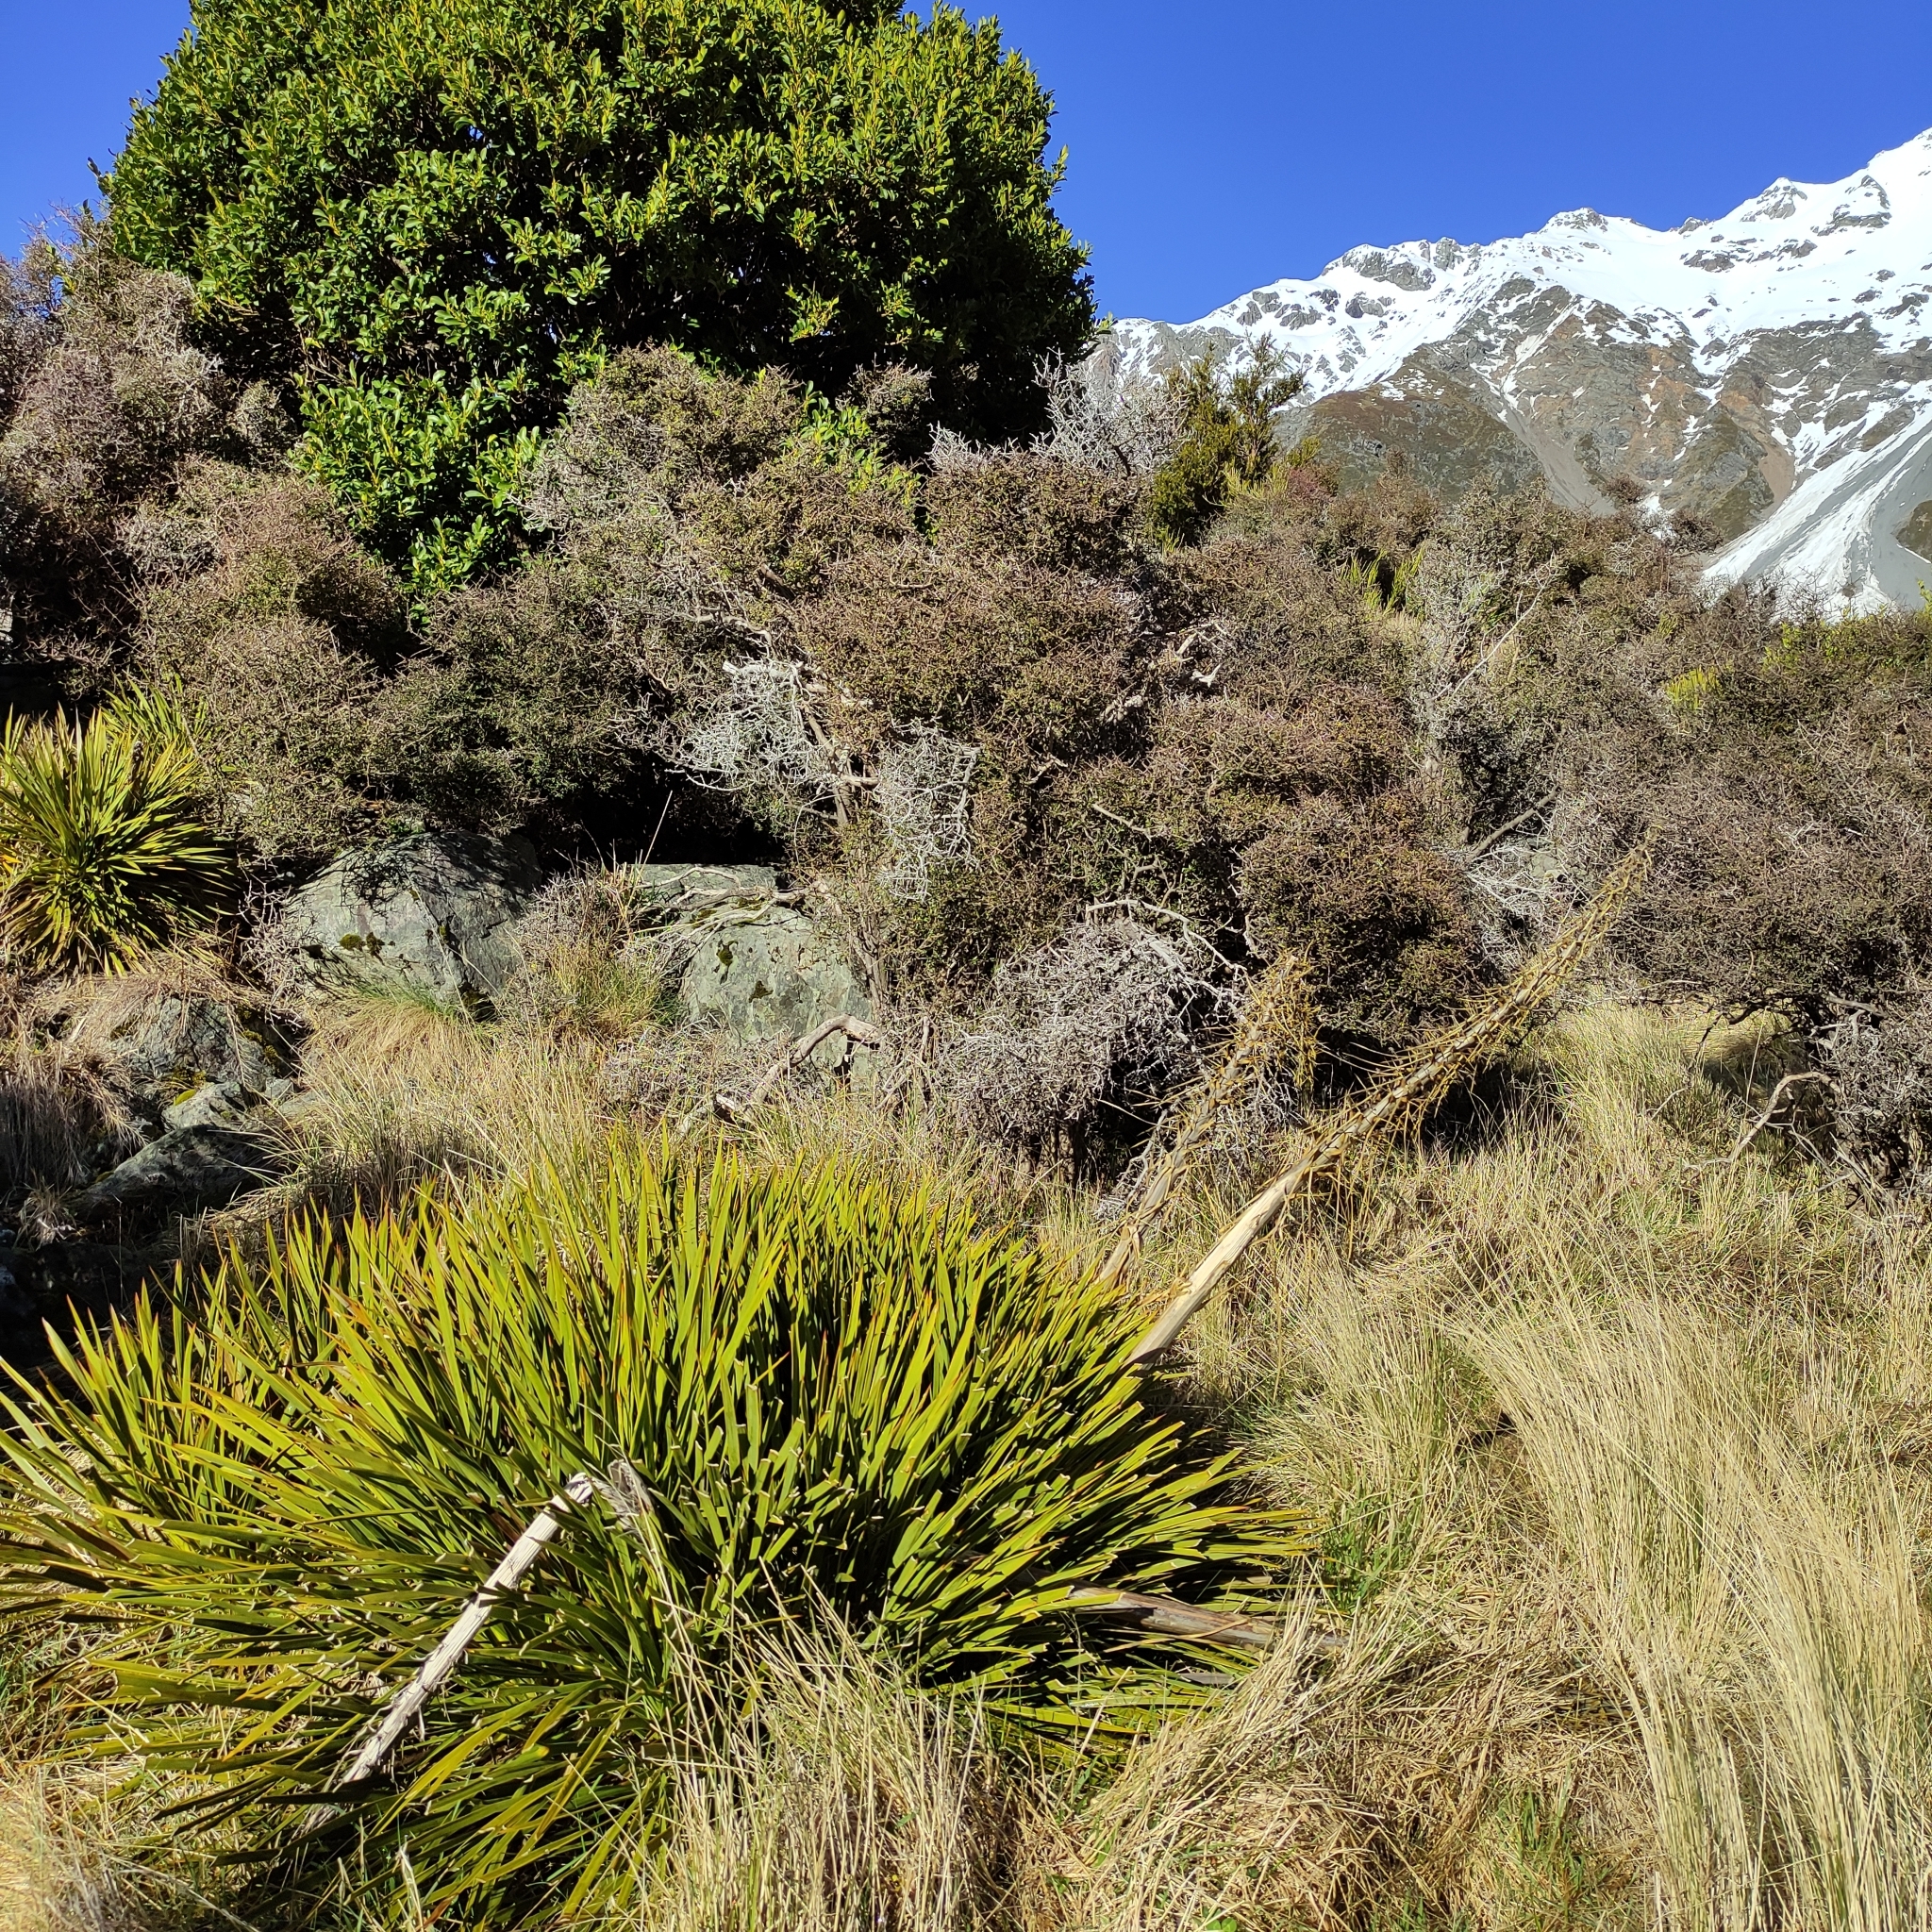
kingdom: Plantae
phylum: Tracheophyta
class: Magnoliopsida
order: Apiales
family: Apiaceae
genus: Aciphylla
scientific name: Aciphylla aurea
